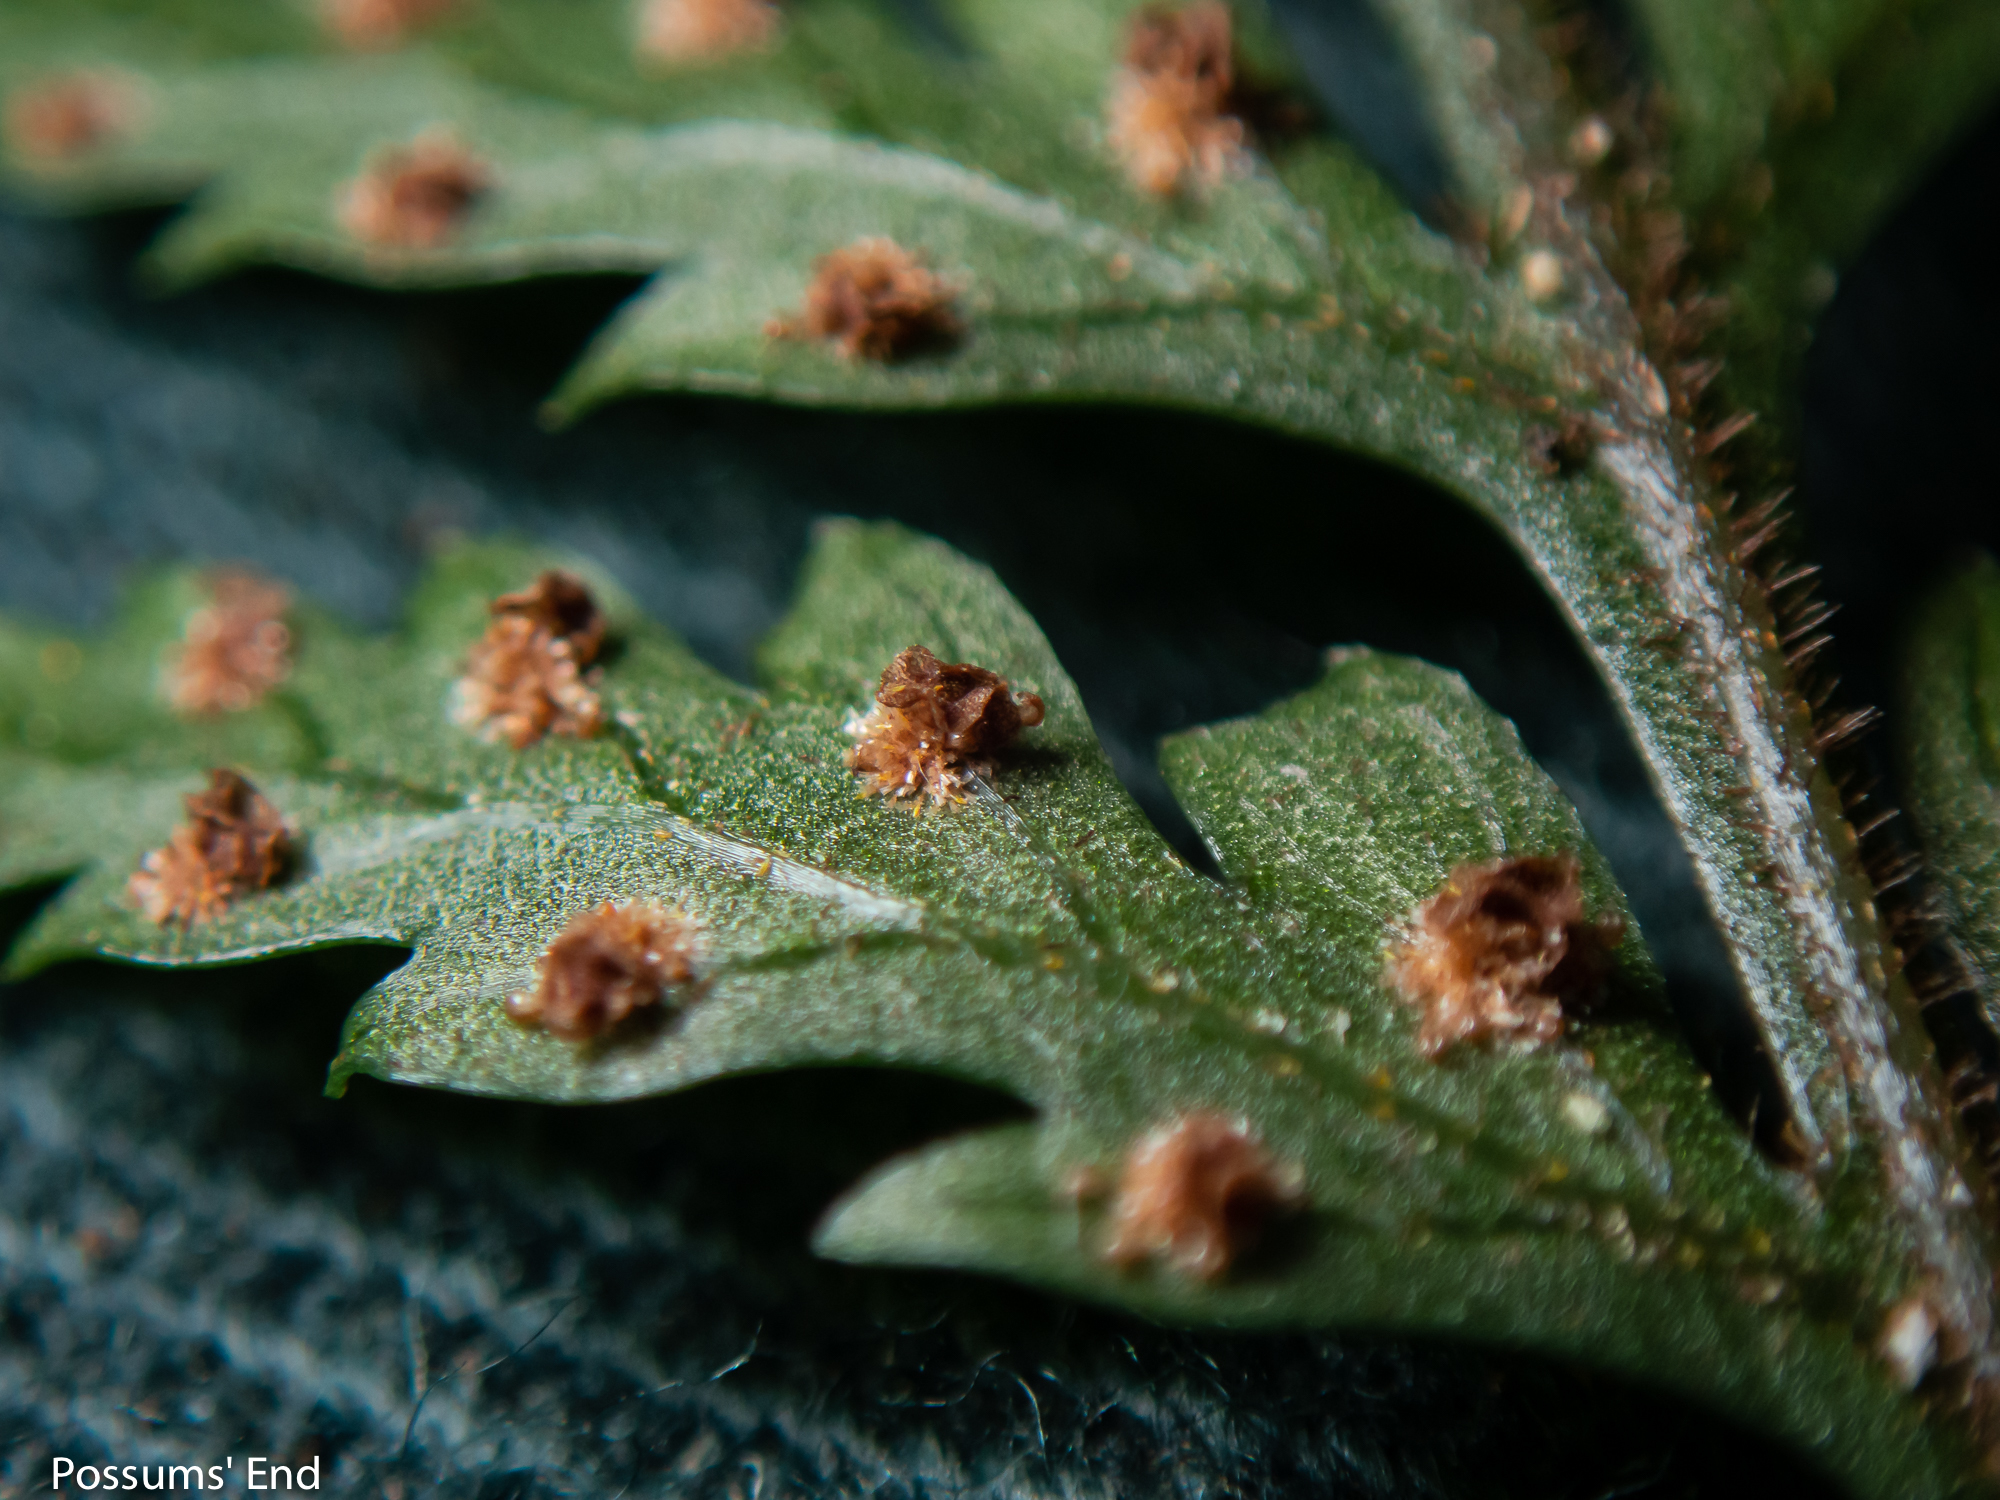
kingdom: Plantae
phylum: Tracheophyta
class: Polypodiopsida
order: Polypodiales
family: Dryopteridaceae
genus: Parapolystichum
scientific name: Parapolystichum glabellum
